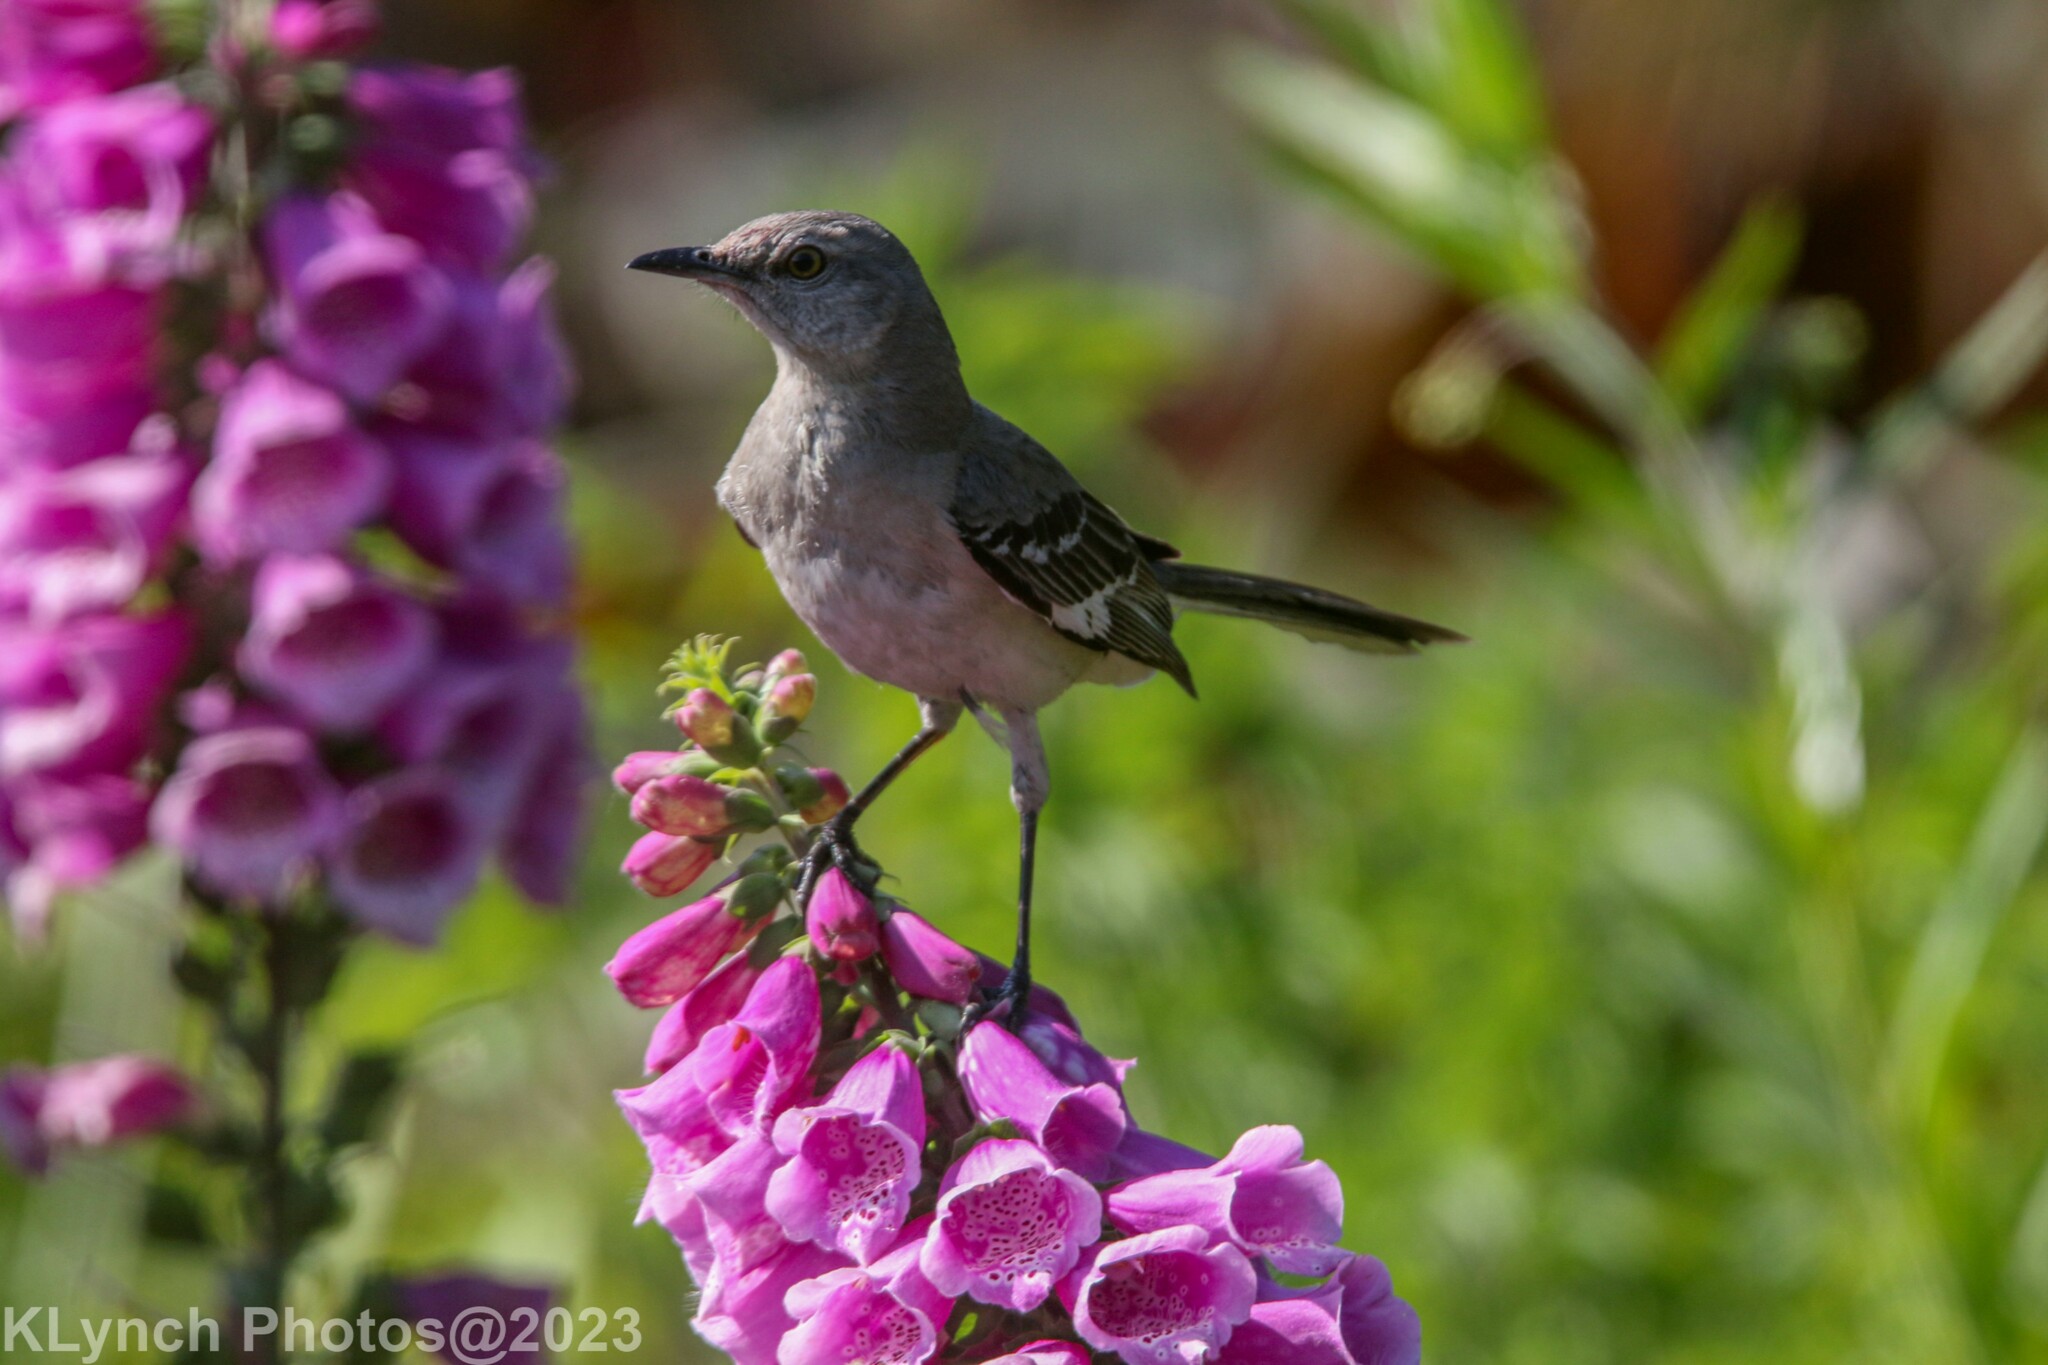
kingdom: Animalia
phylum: Chordata
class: Aves
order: Passeriformes
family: Mimidae
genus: Mimus
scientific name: Mimus polyglottos
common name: Northern mockingbird
